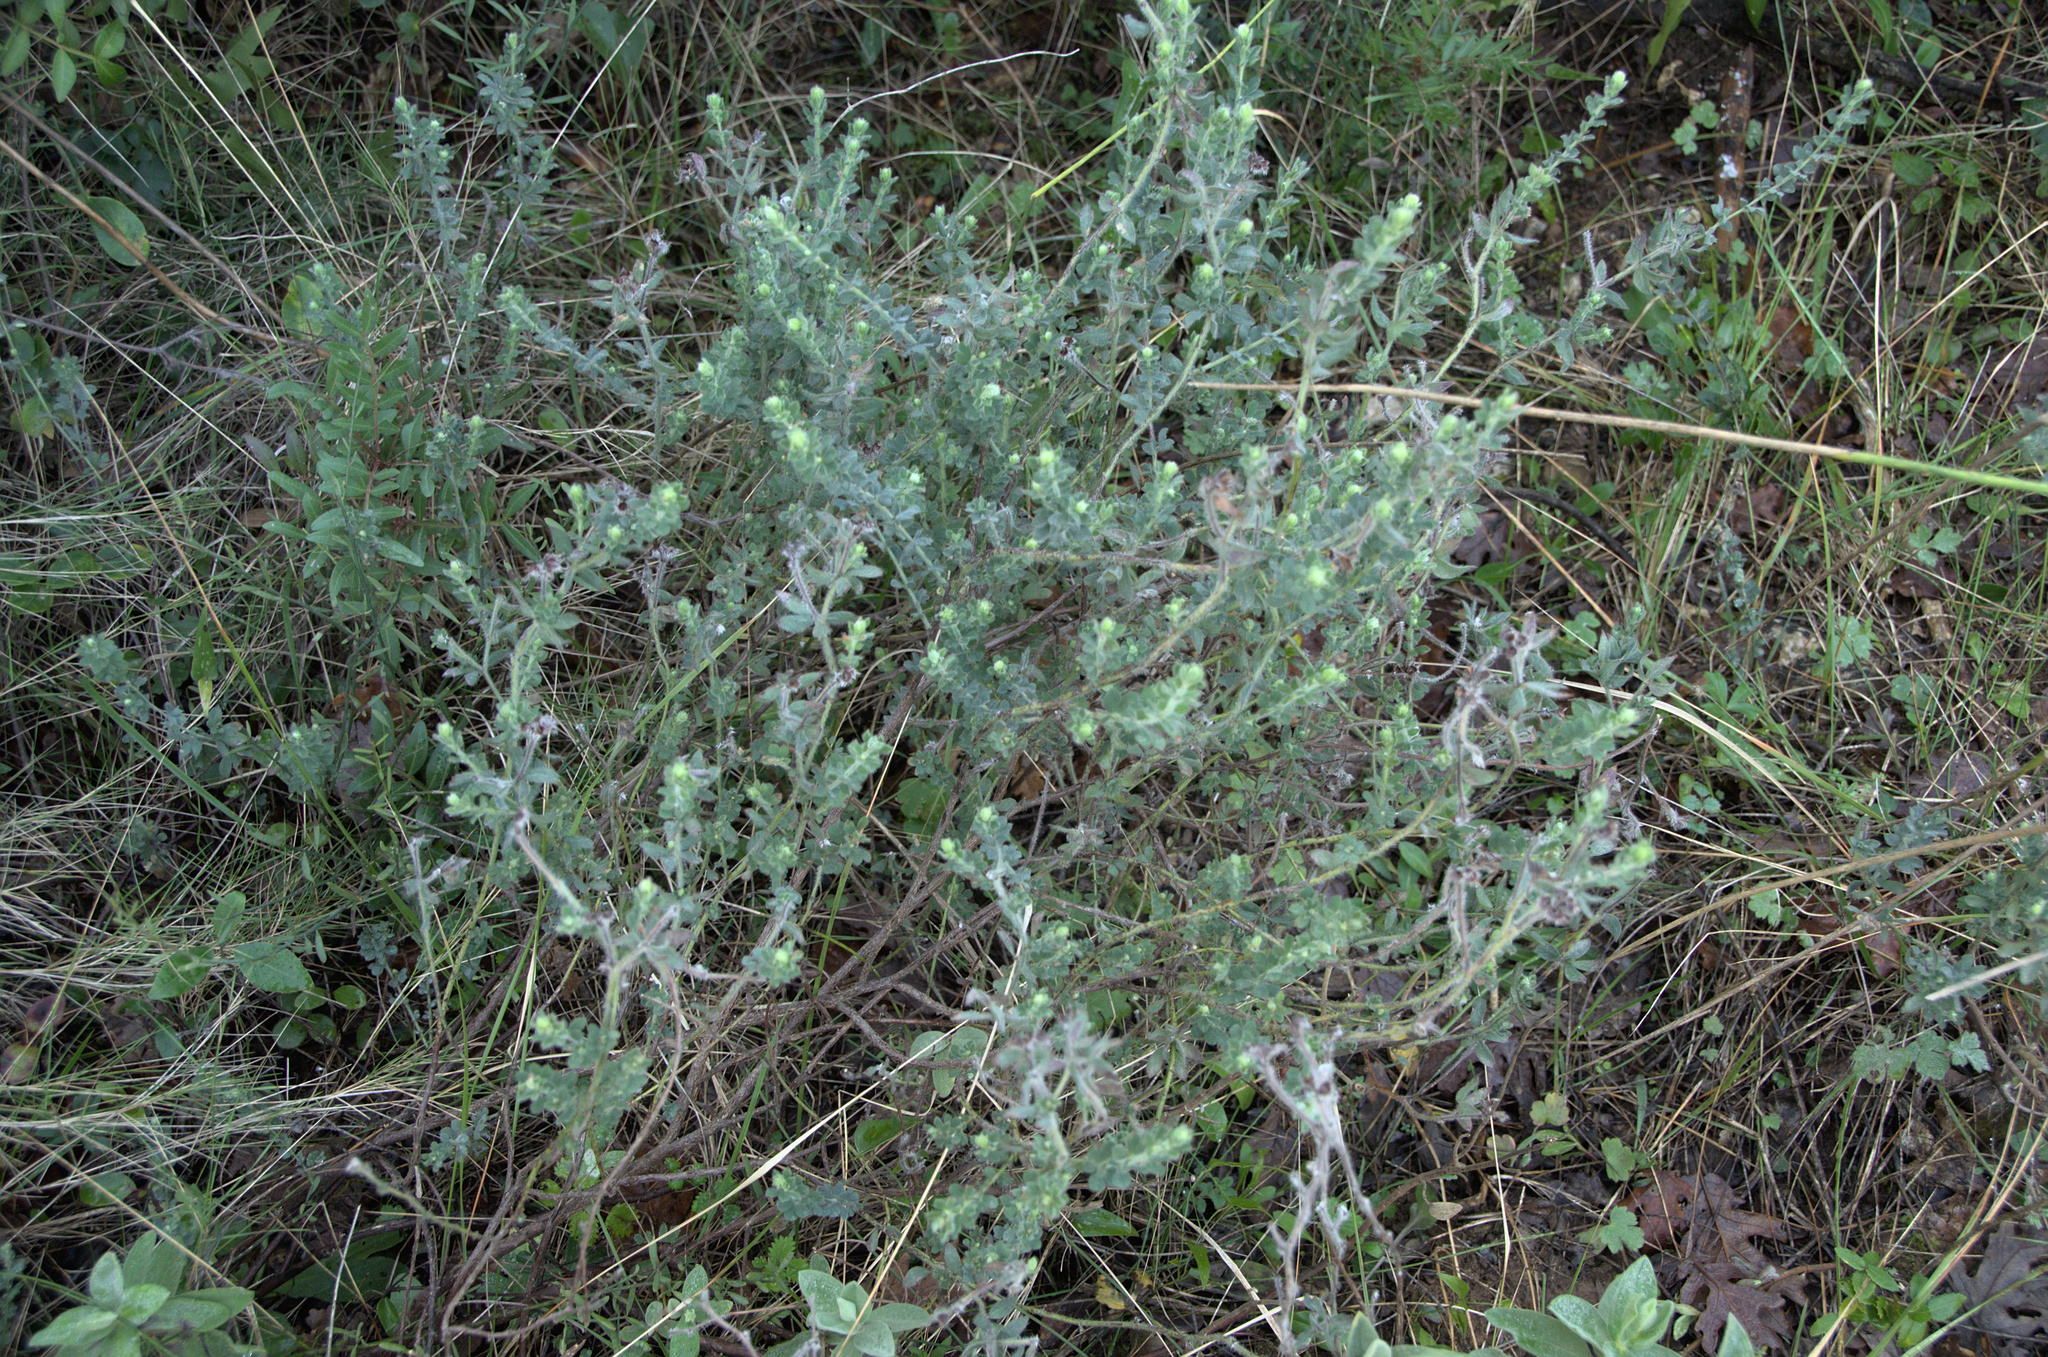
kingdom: Plantae
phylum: Tracheophyta
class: Magnoliopsida
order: Fabales
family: Fabaceae
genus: Lotus
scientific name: Lotus hirsutus
